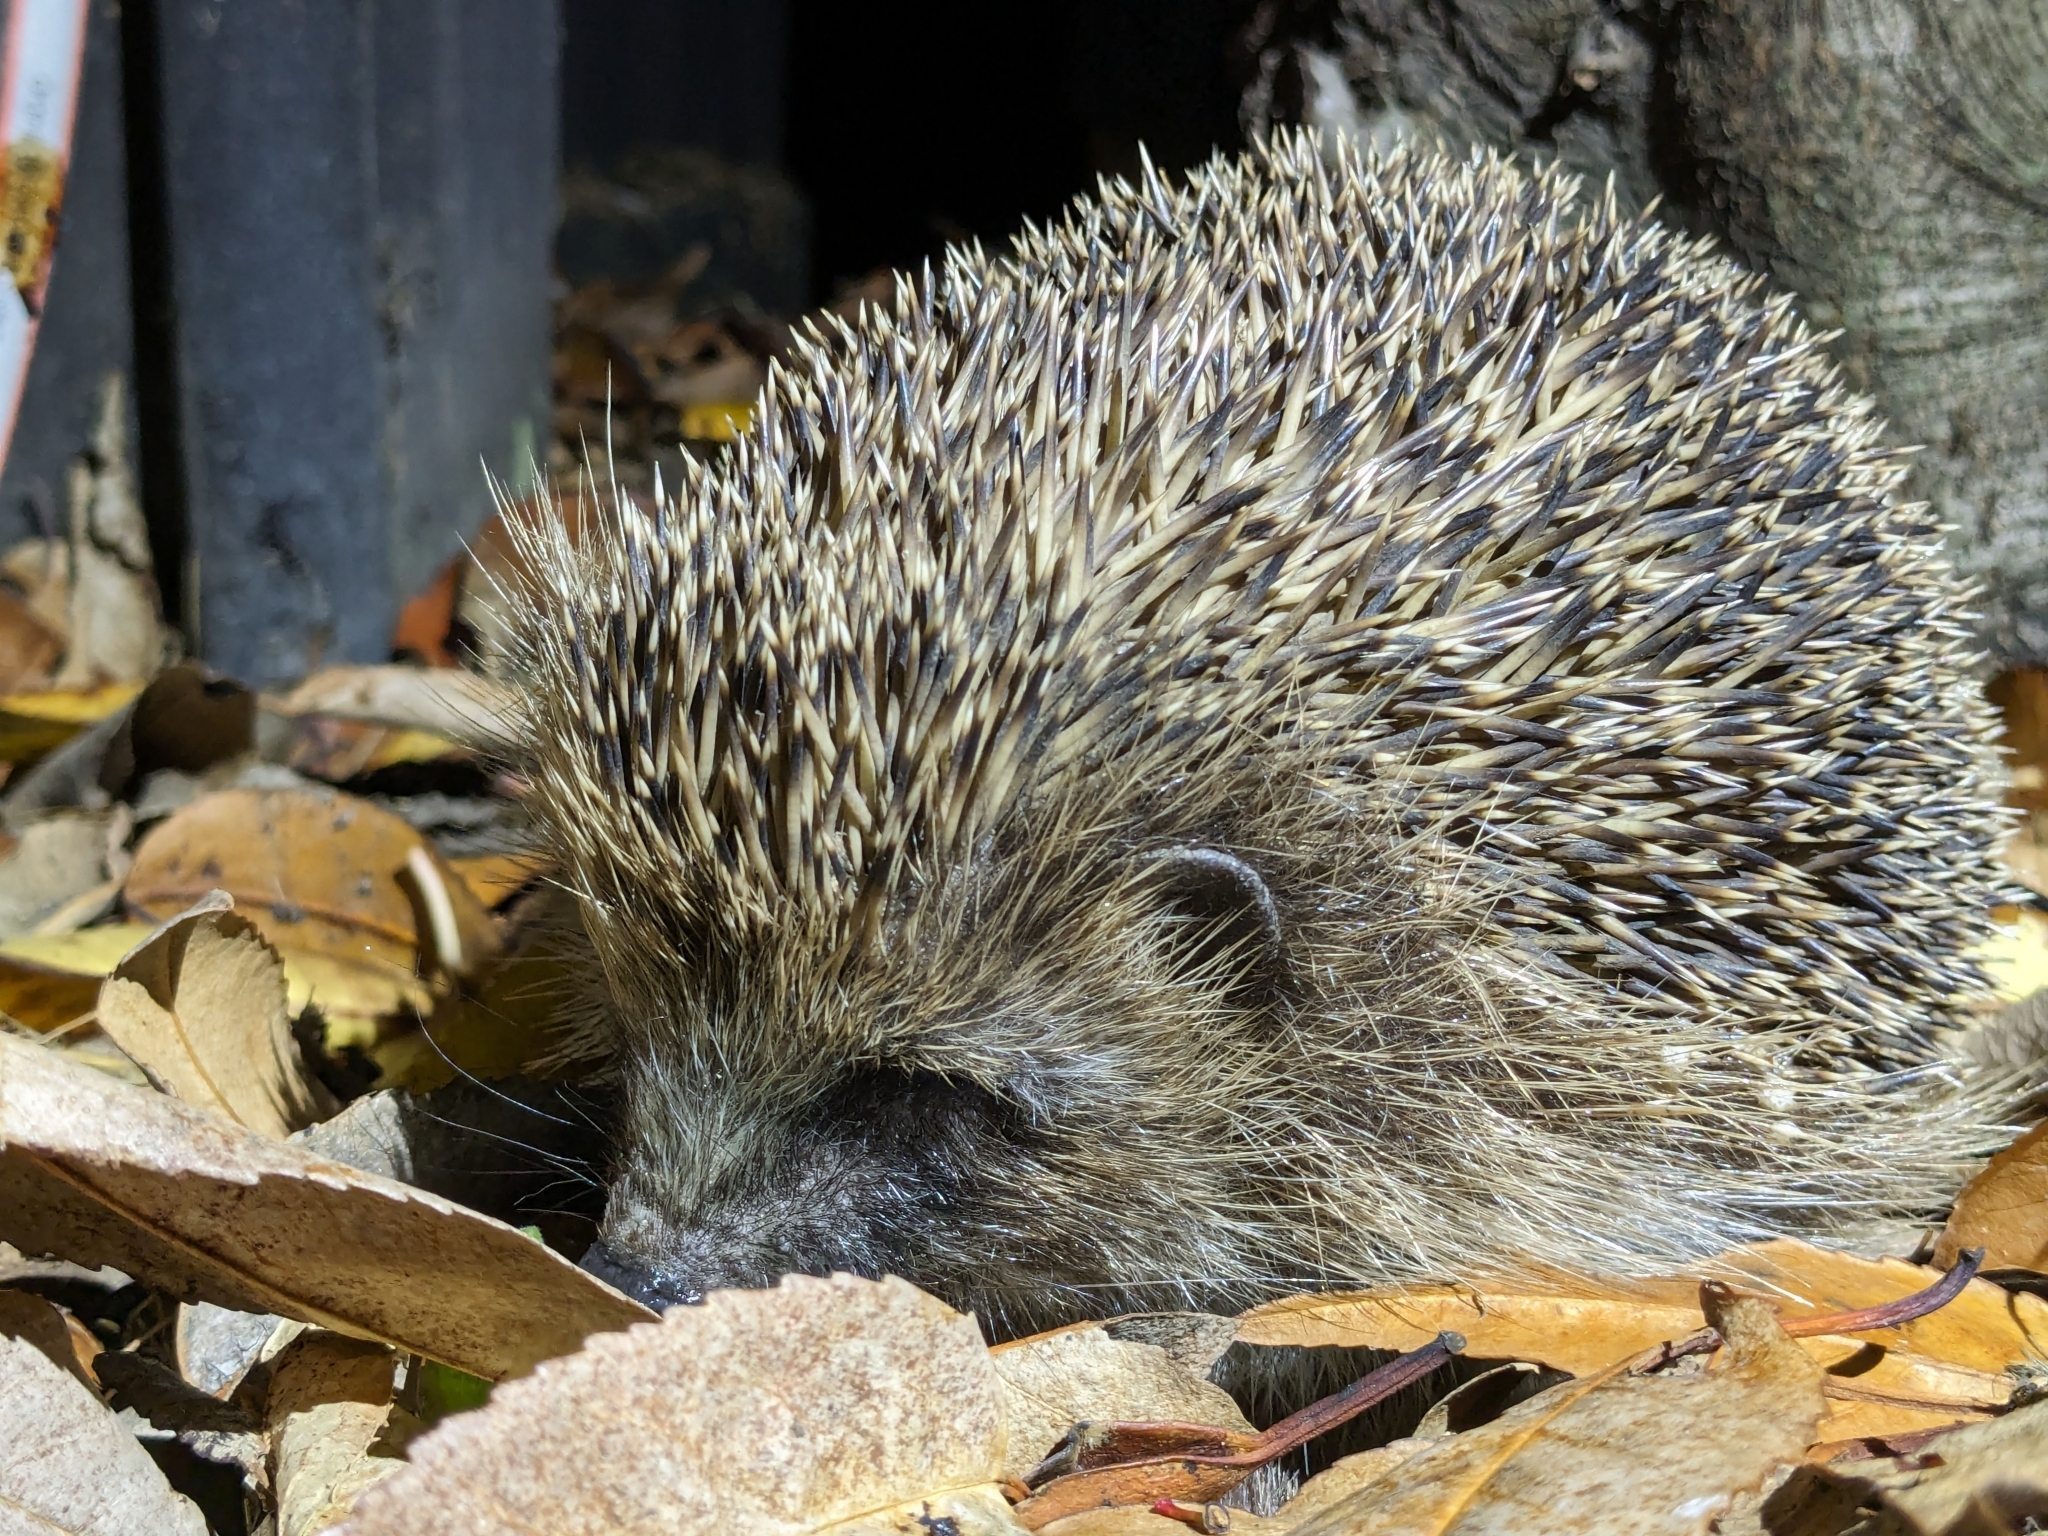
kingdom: Animalia
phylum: Chordata
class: Mammalia
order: Erinaceomorpha
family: Erinaceidae
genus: Erinaceus
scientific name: Erinaceus europaeus
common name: West european hedgehog
